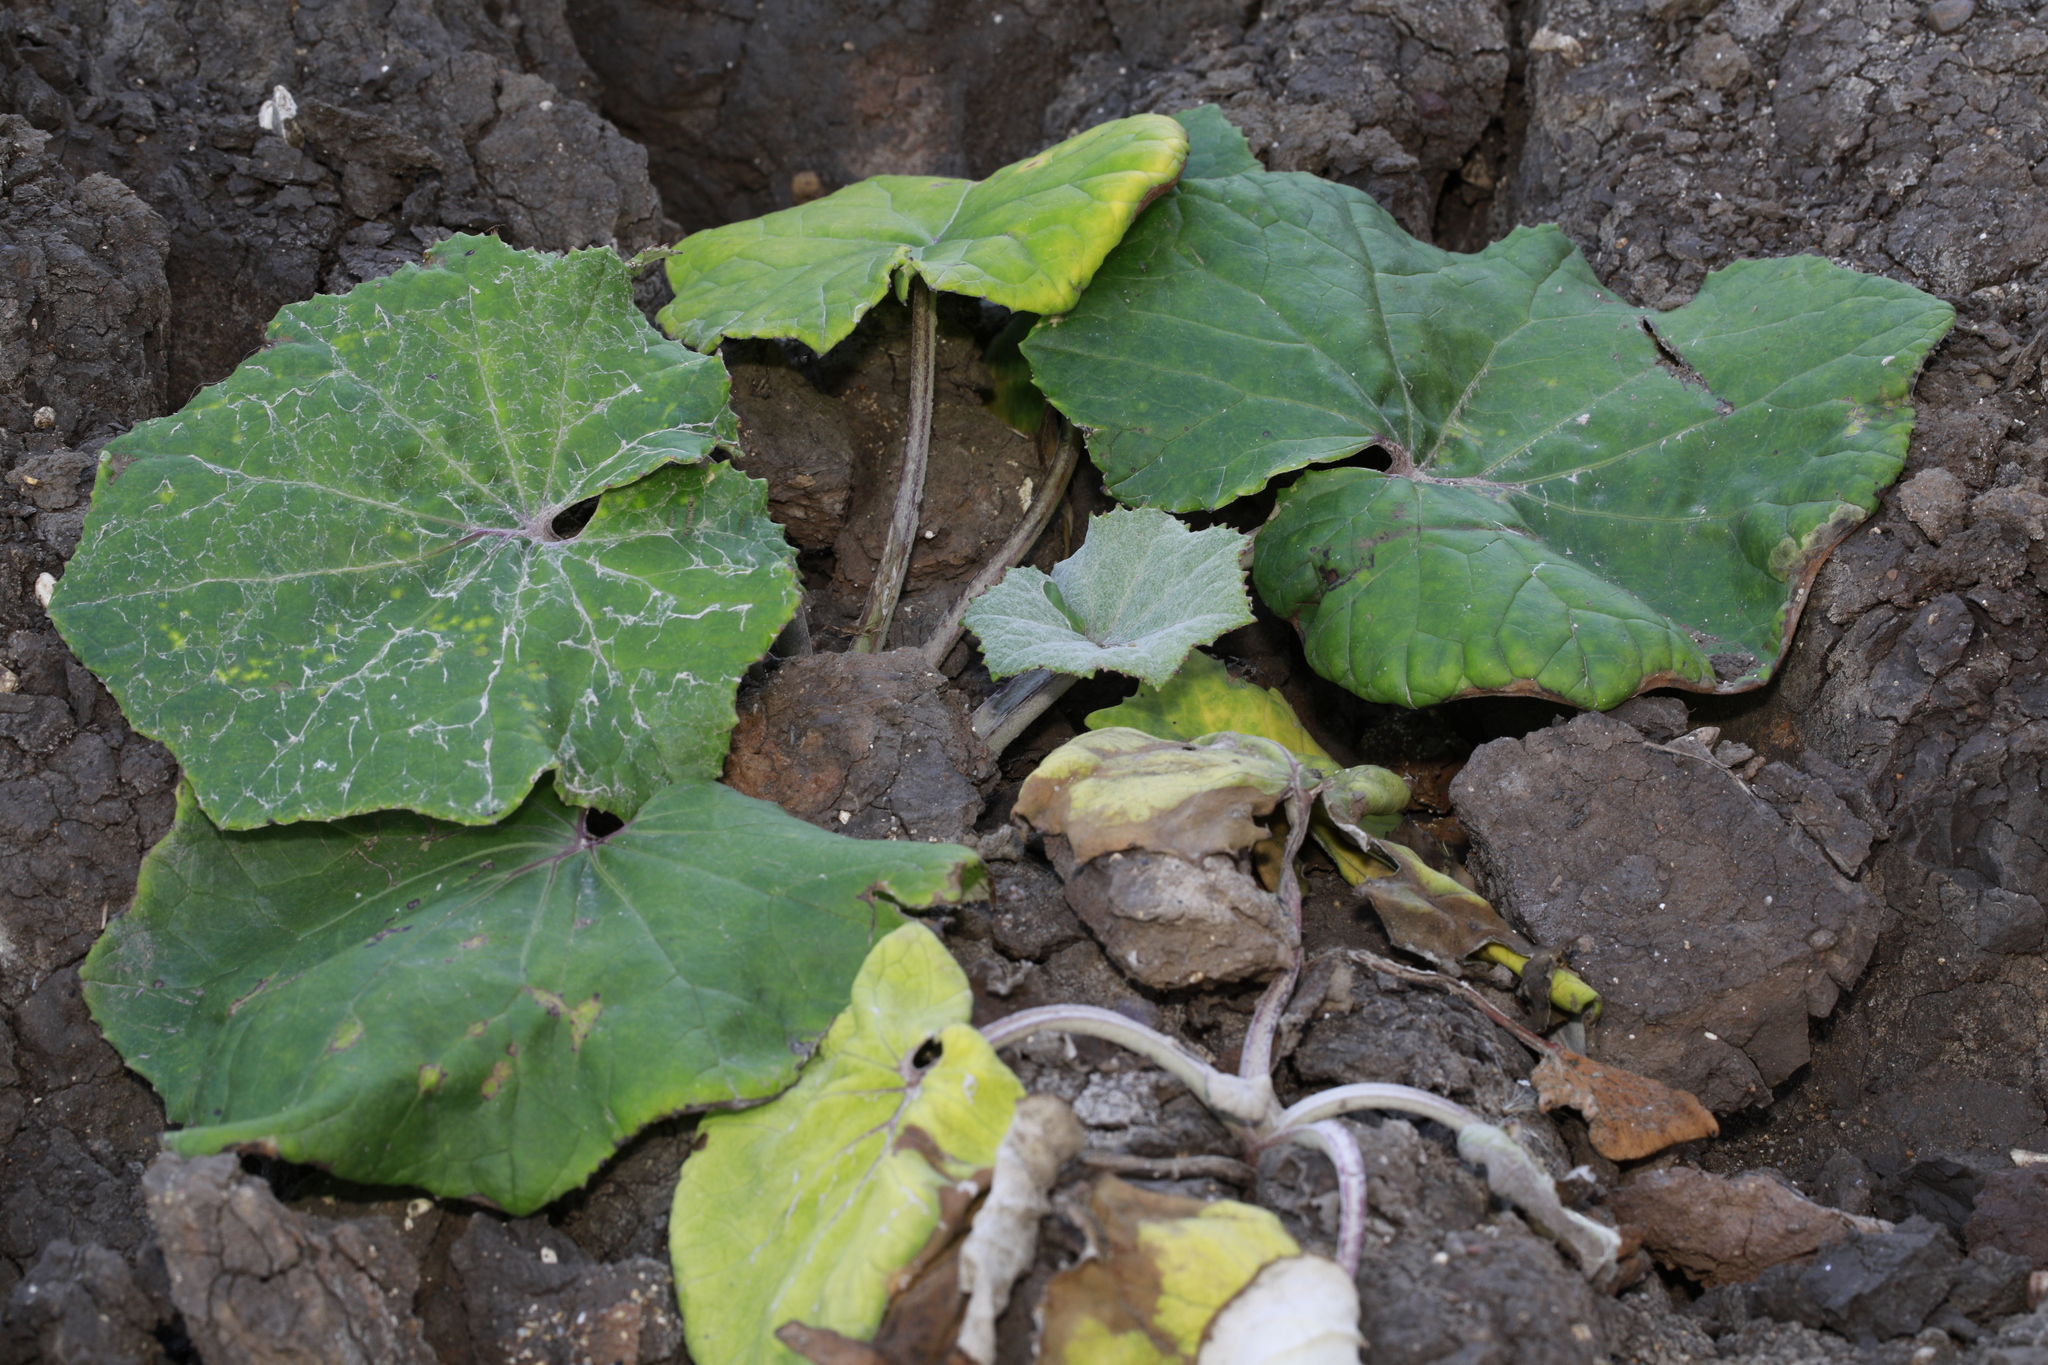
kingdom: Plantae
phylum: Tracheophyta
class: Magnoliopsida
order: Asterales
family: Asteraceae
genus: Tussilago
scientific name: Tussilago farfara
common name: Coltsfoot
